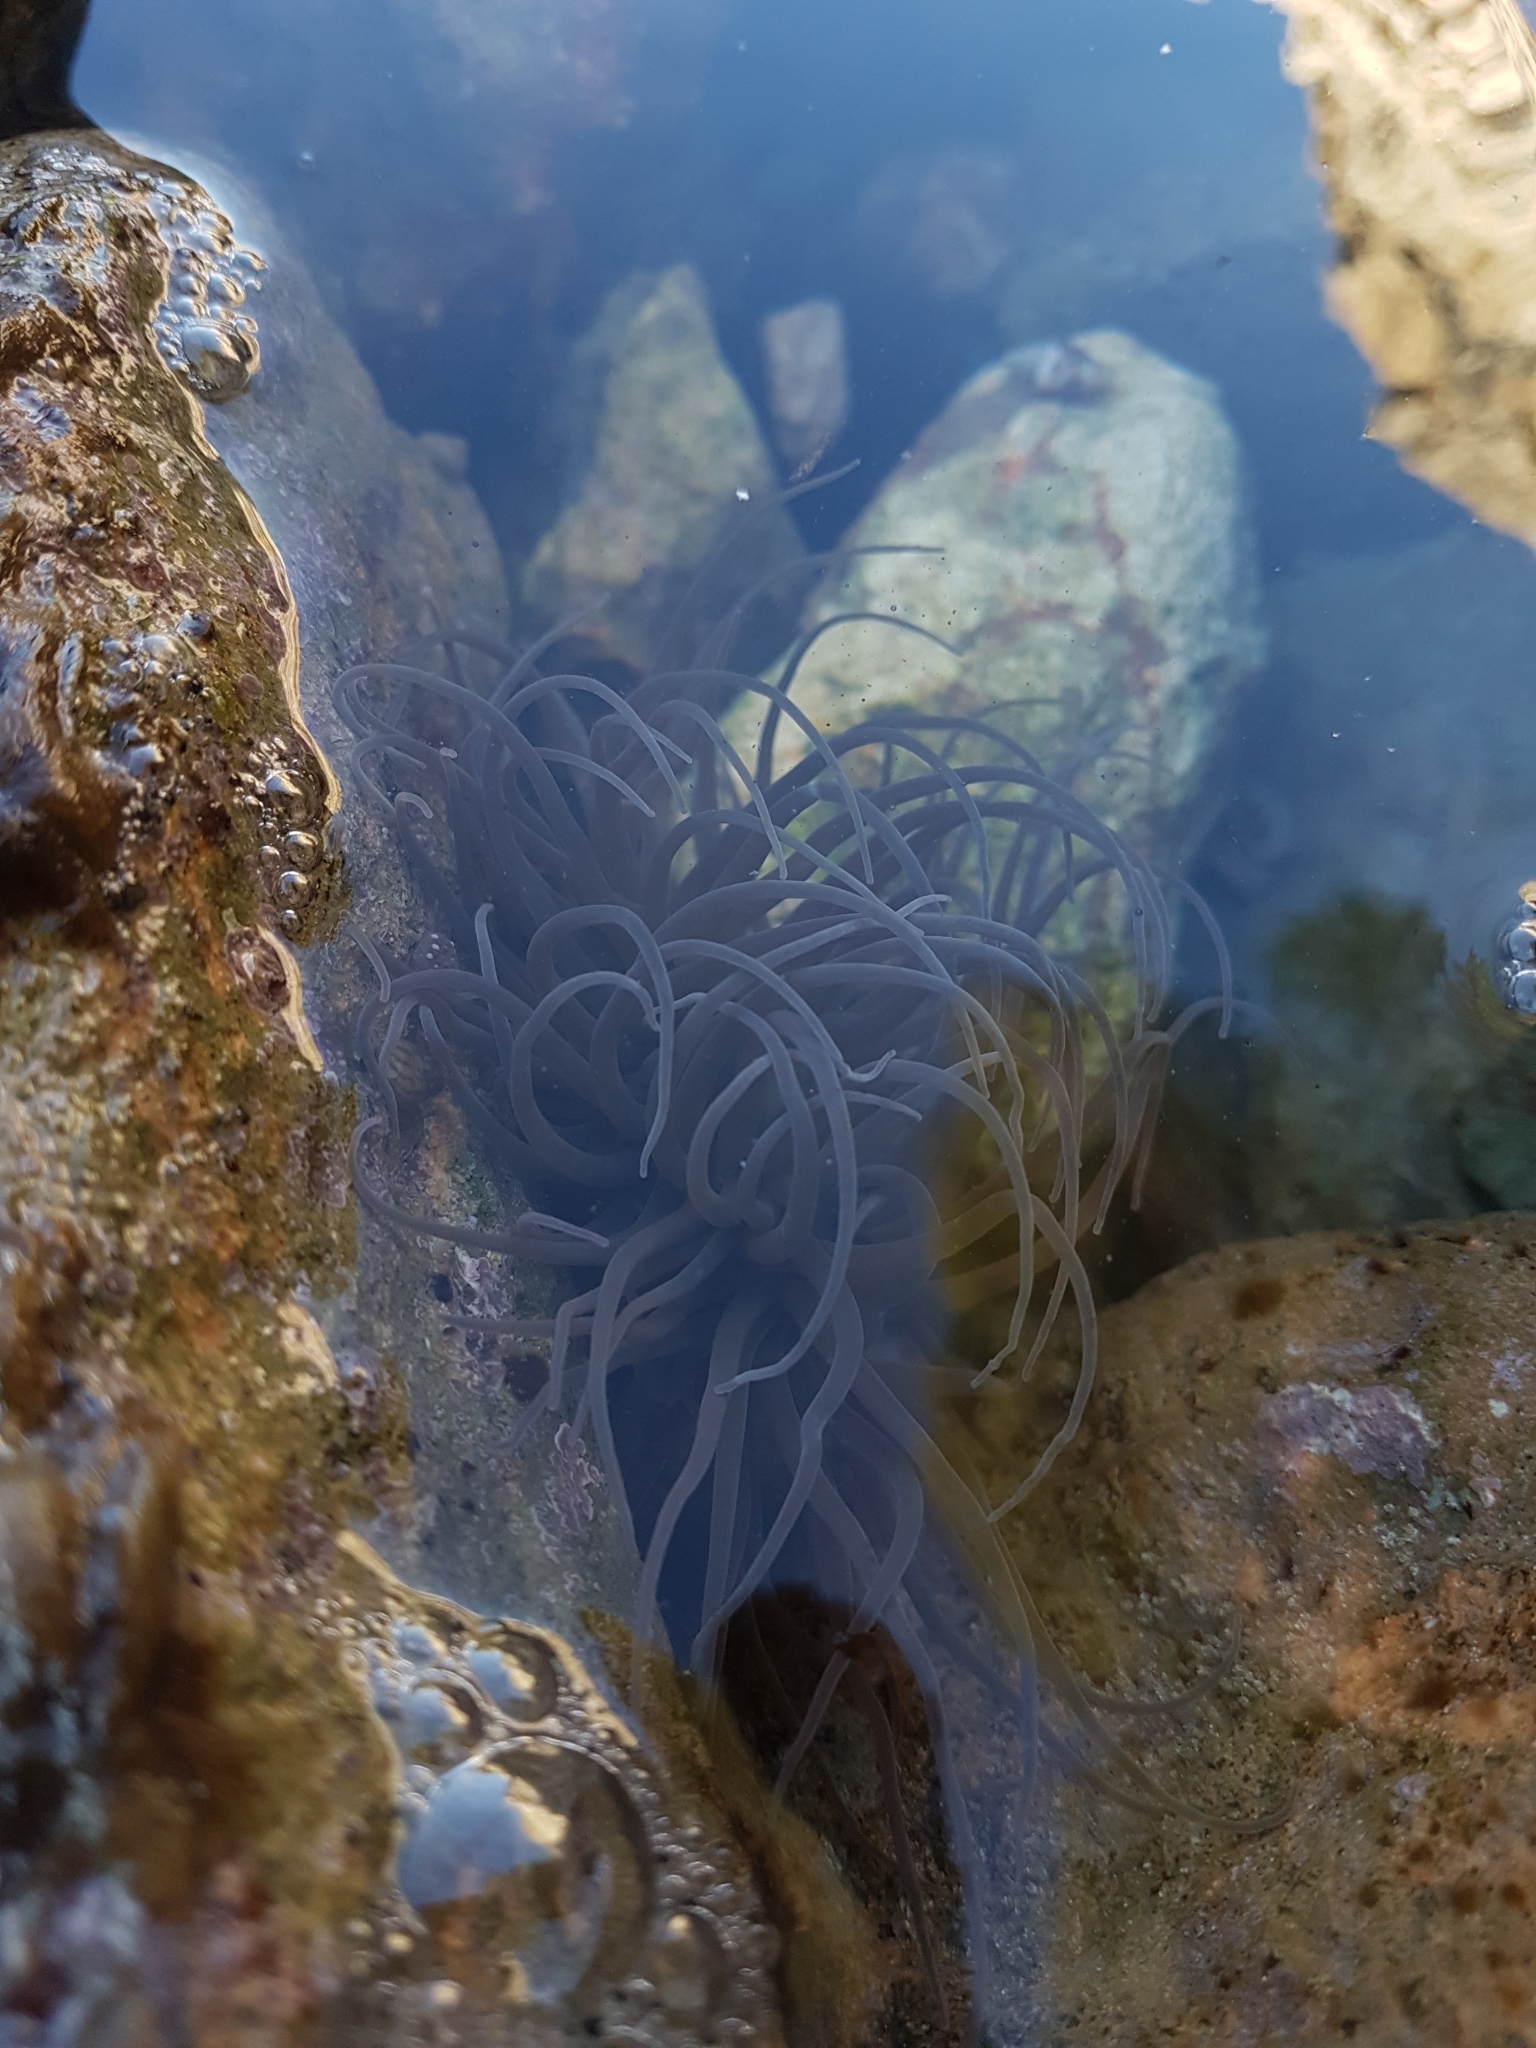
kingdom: Animalia
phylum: Cnidaria
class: Anthozoa
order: Actiniaria
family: Actiniidae
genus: Anemonia
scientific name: Anemonia viridis
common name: Snakelocks anemone
